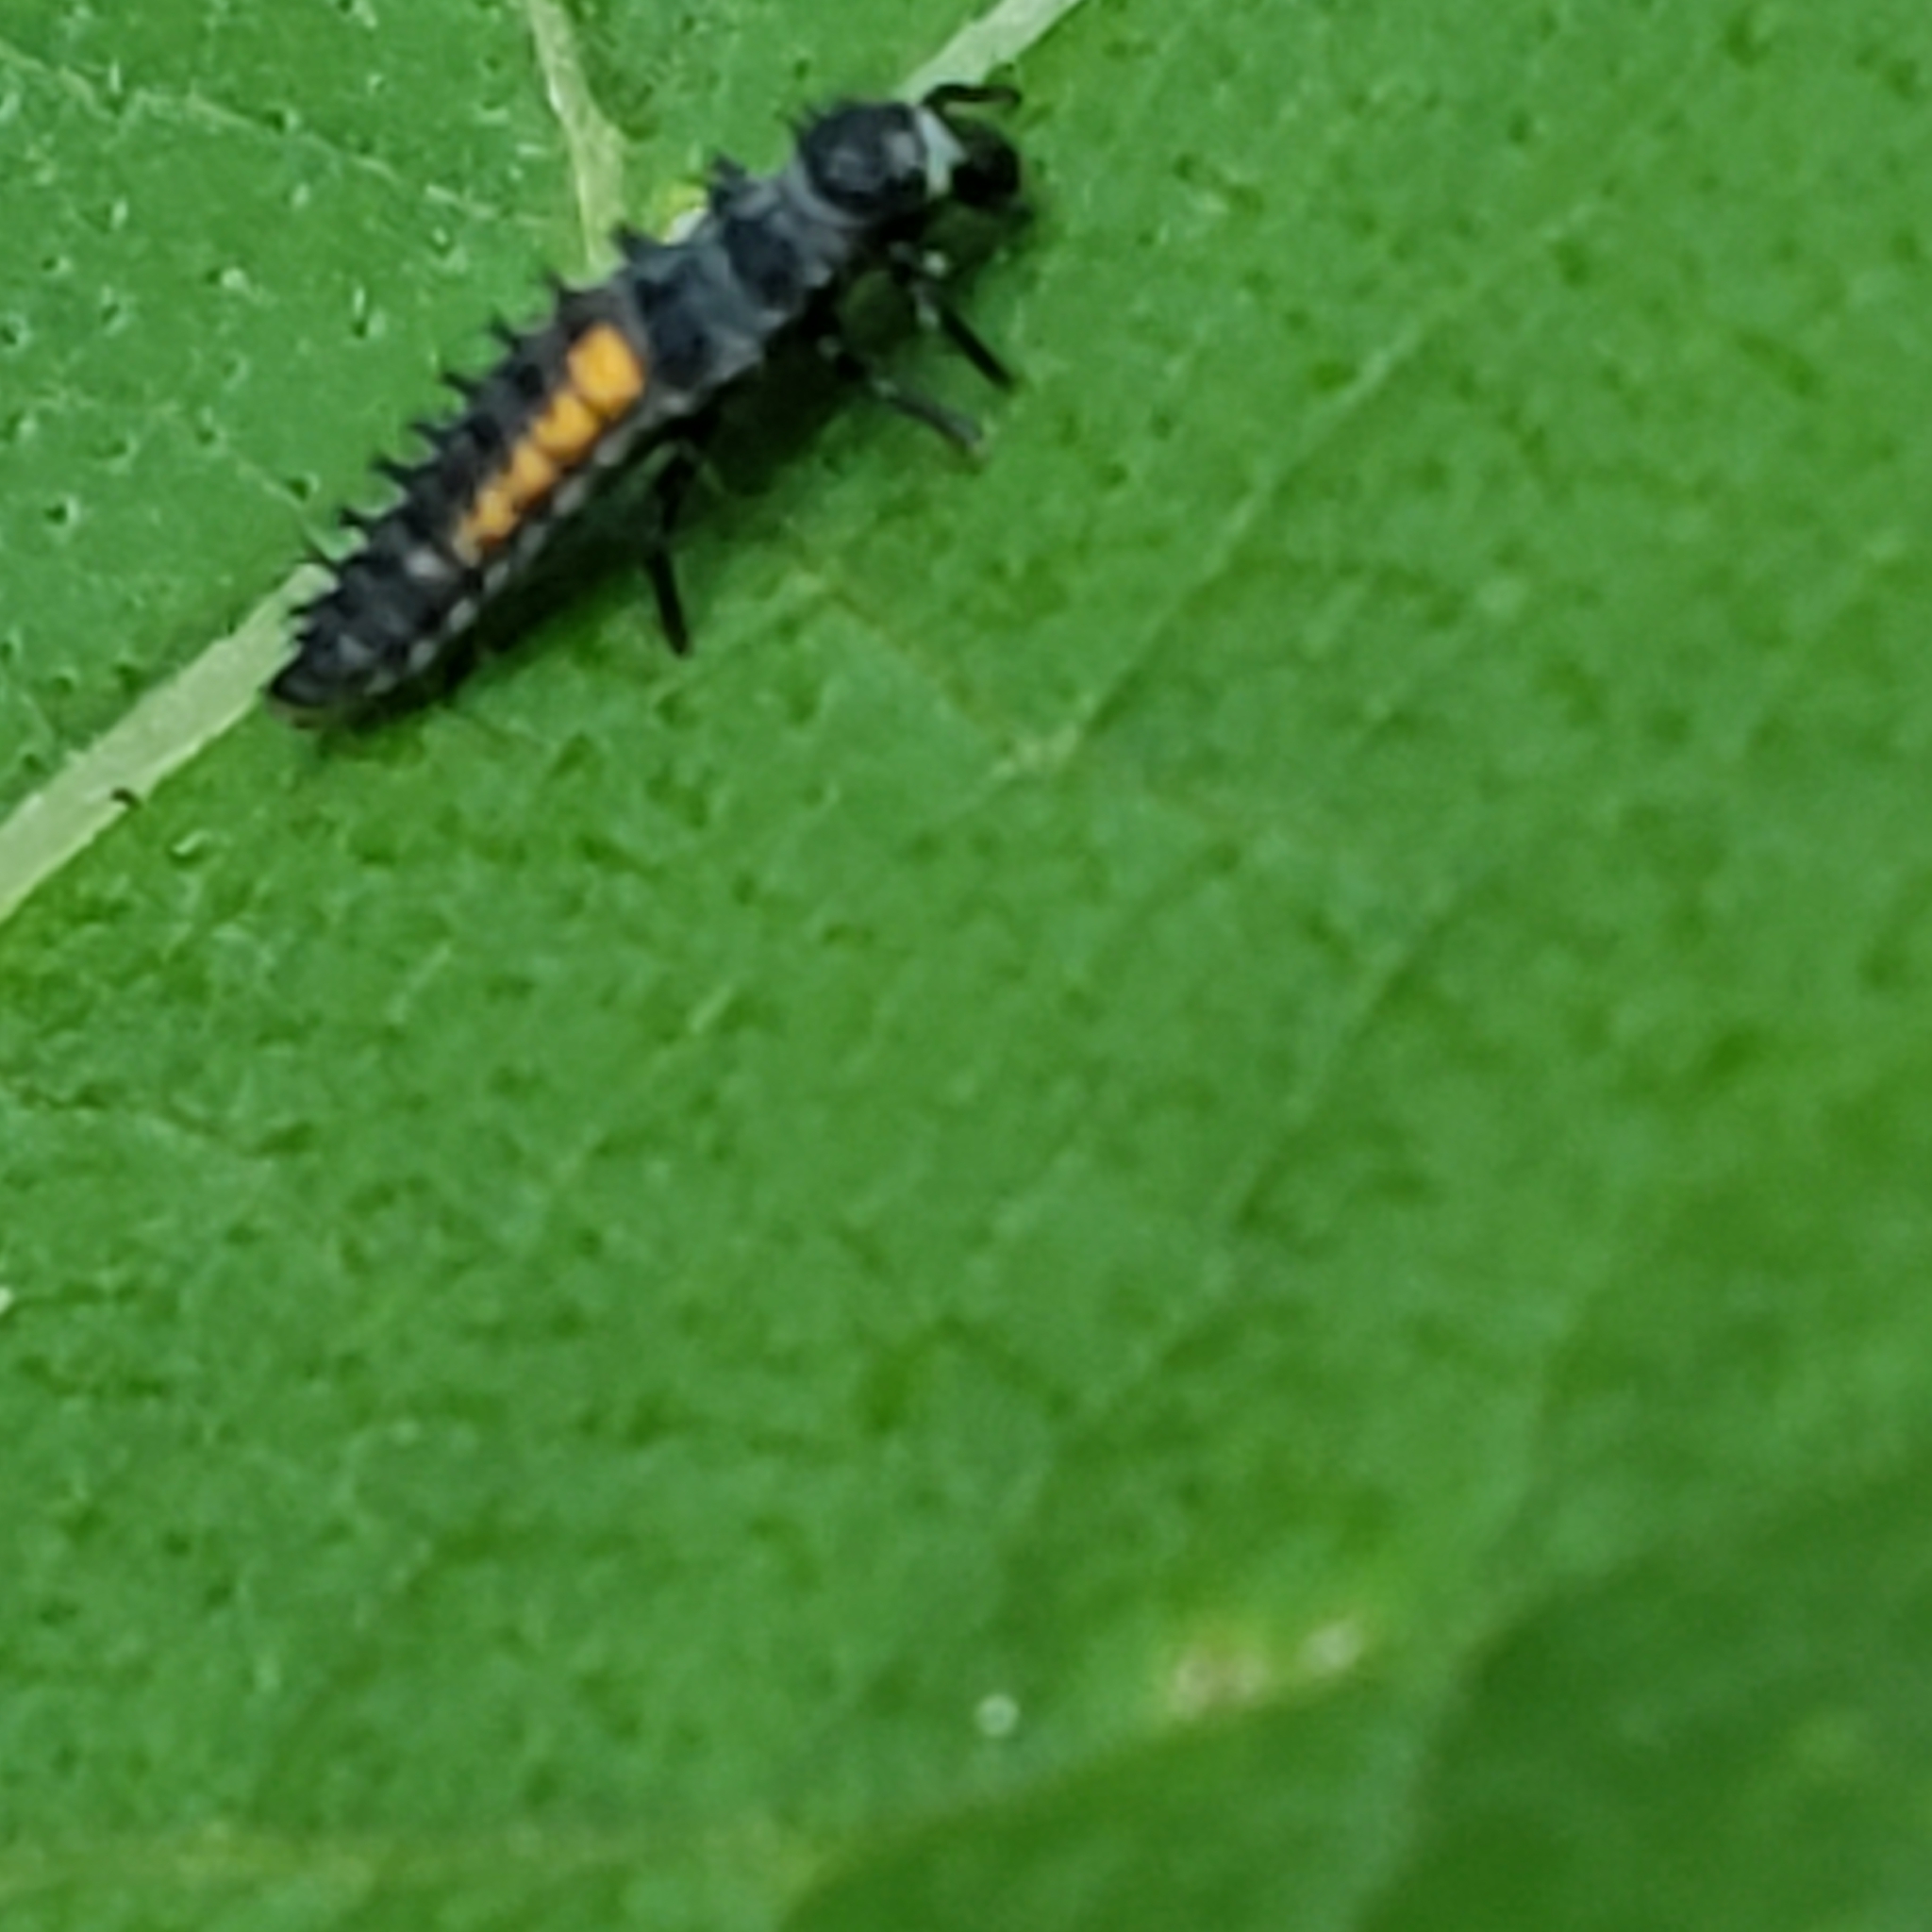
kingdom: Animalia
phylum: Arthropoda
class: Insecta
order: Coleoptera
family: Coccinellidae
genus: Harmonia
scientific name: Harmonia axyridis
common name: Harlequin ladybird
